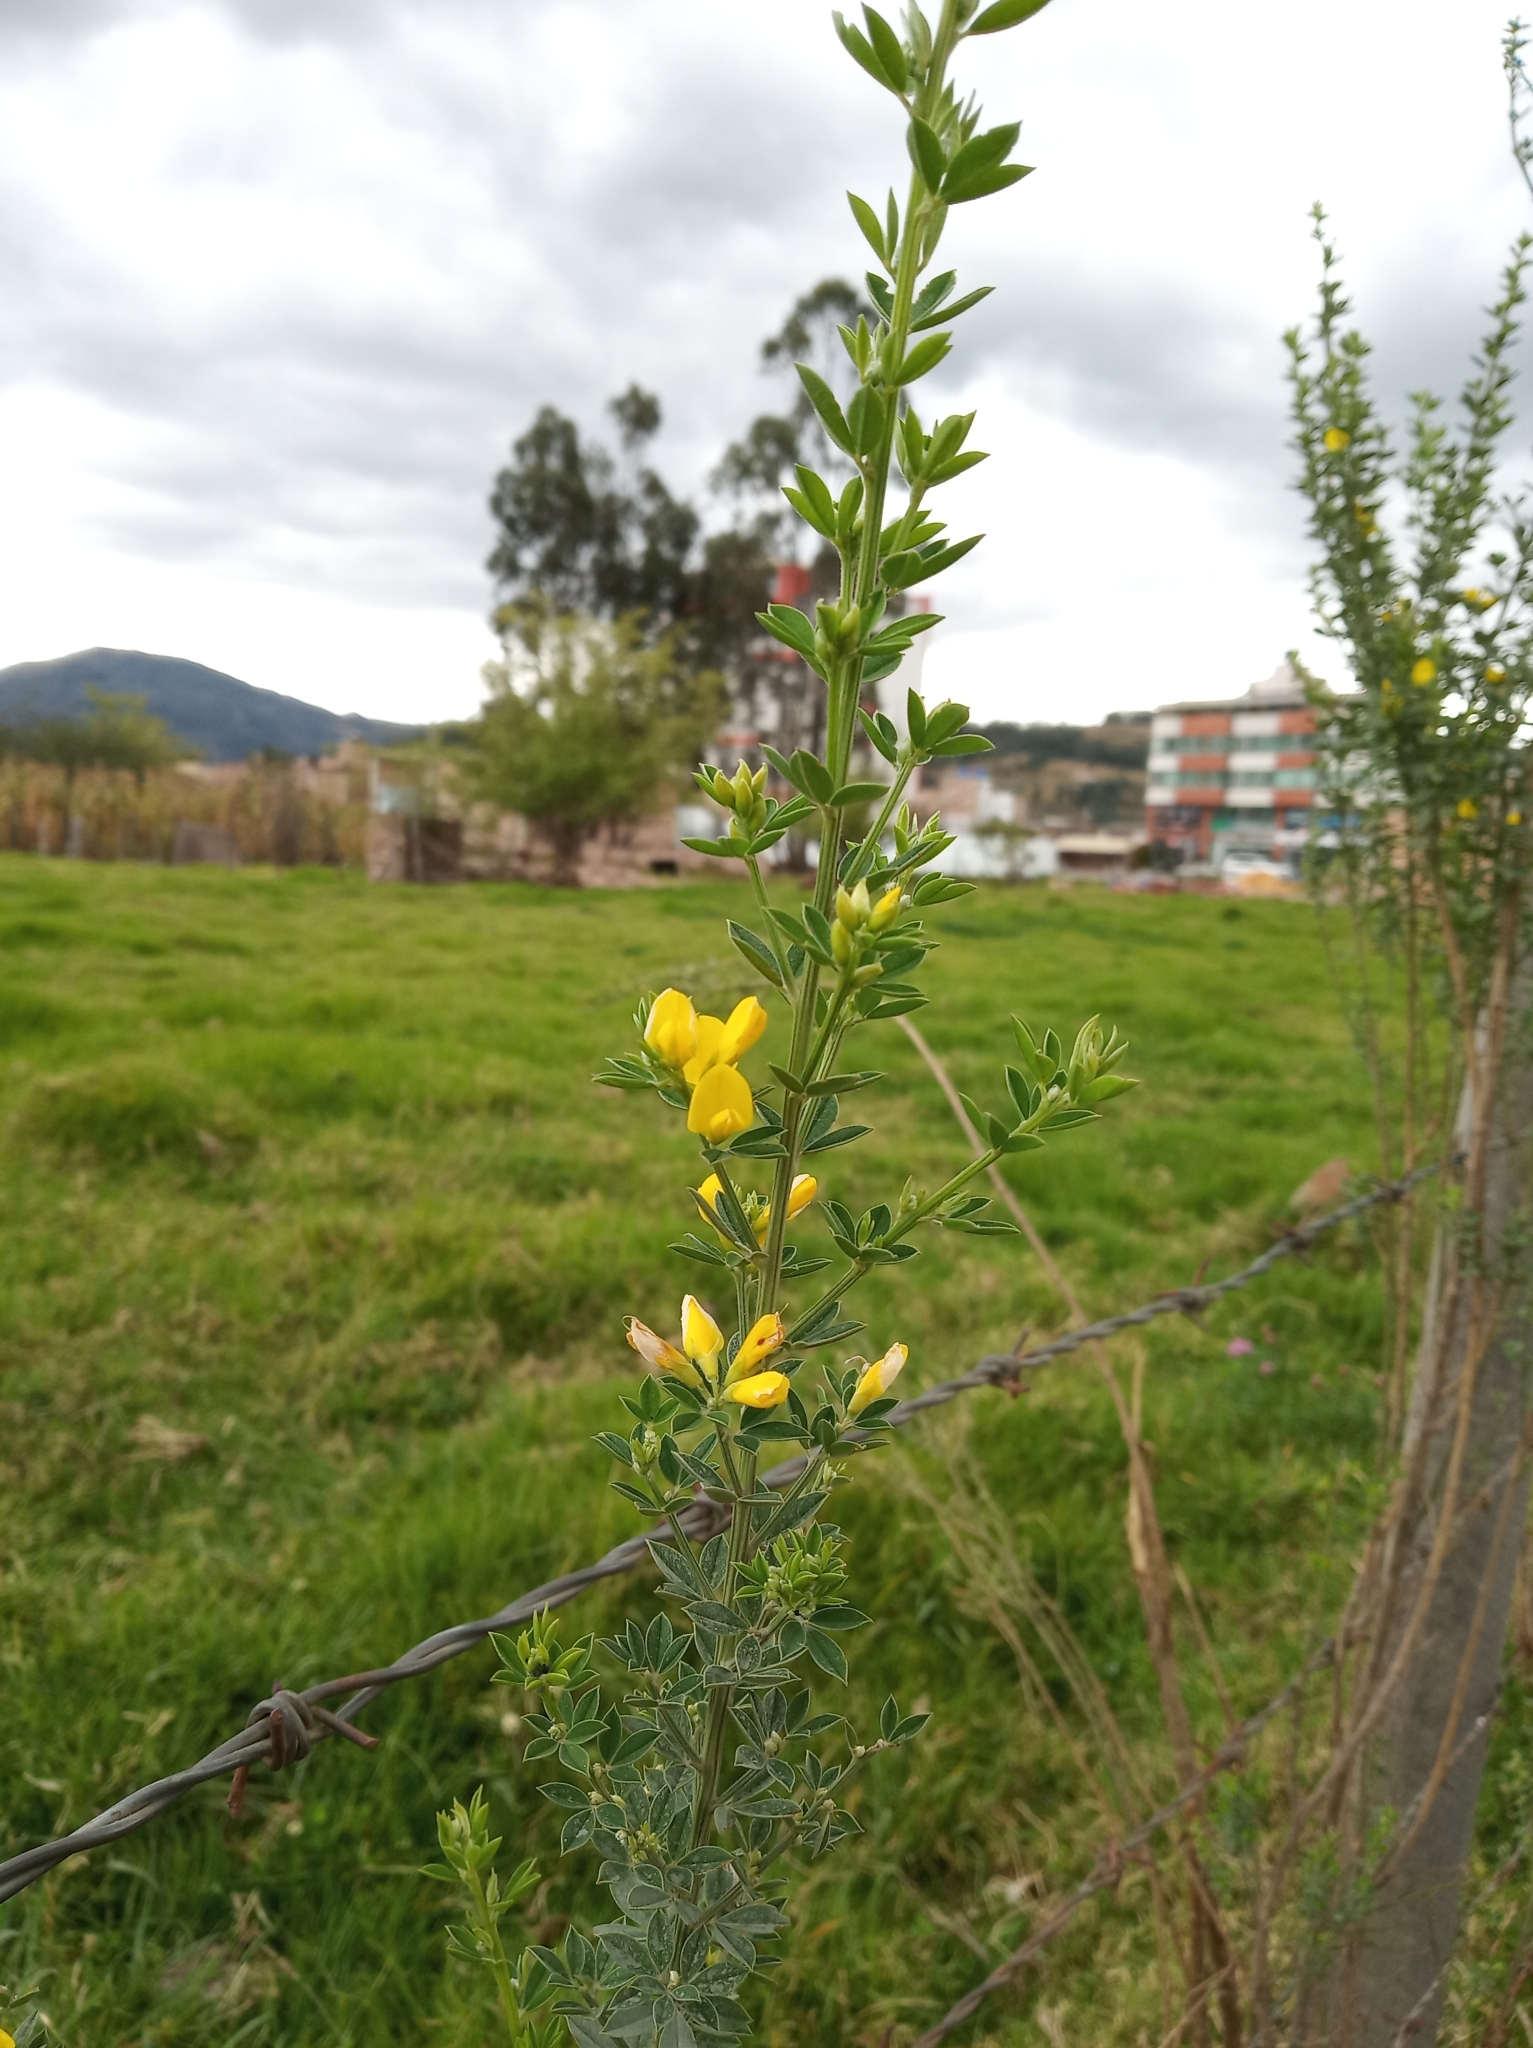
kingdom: Plantae
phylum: Tracheophyta
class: Magnoliopsida
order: Fabales
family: Fabaceae
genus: Genista
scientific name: Genista monspessulana
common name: Montpellier broom
